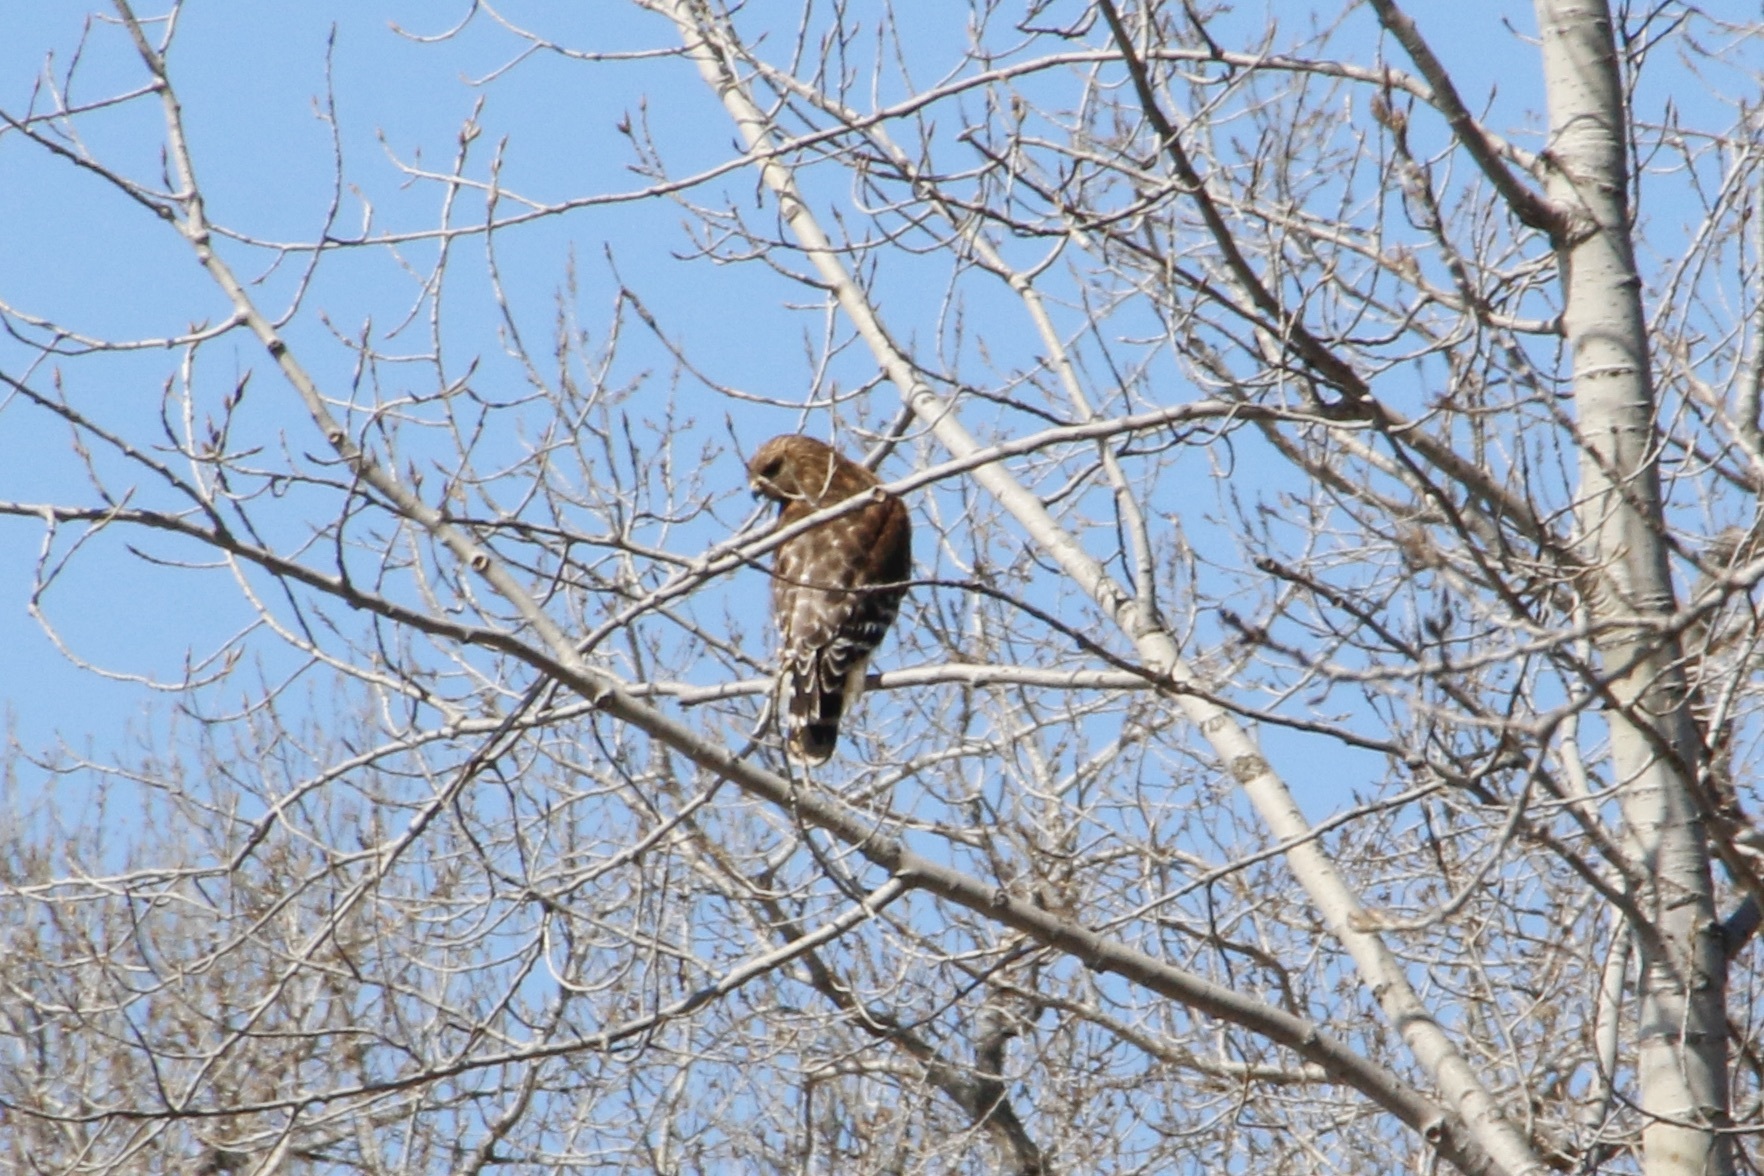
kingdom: Animalia
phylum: Chordata
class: Aves
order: Accipitriformes
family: Accipitridae
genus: Buteo
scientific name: Buteo lineatus
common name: Red-shouldered hawk
